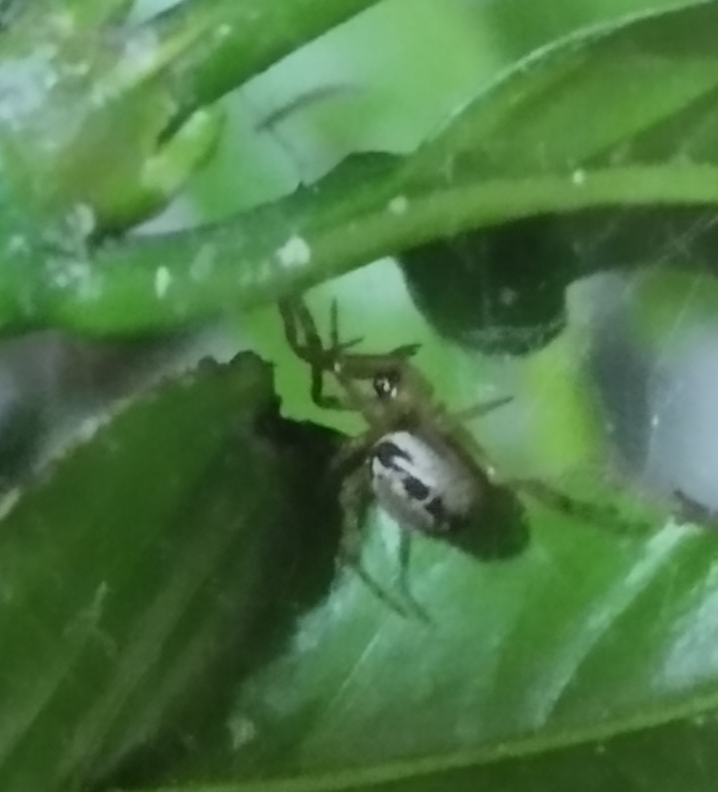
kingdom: Animalia
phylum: Arthropoda
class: Arachnida
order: Araneae
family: Theridiidae
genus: Steatoda
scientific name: Steatoda nobilis
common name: Cobweb weaver
